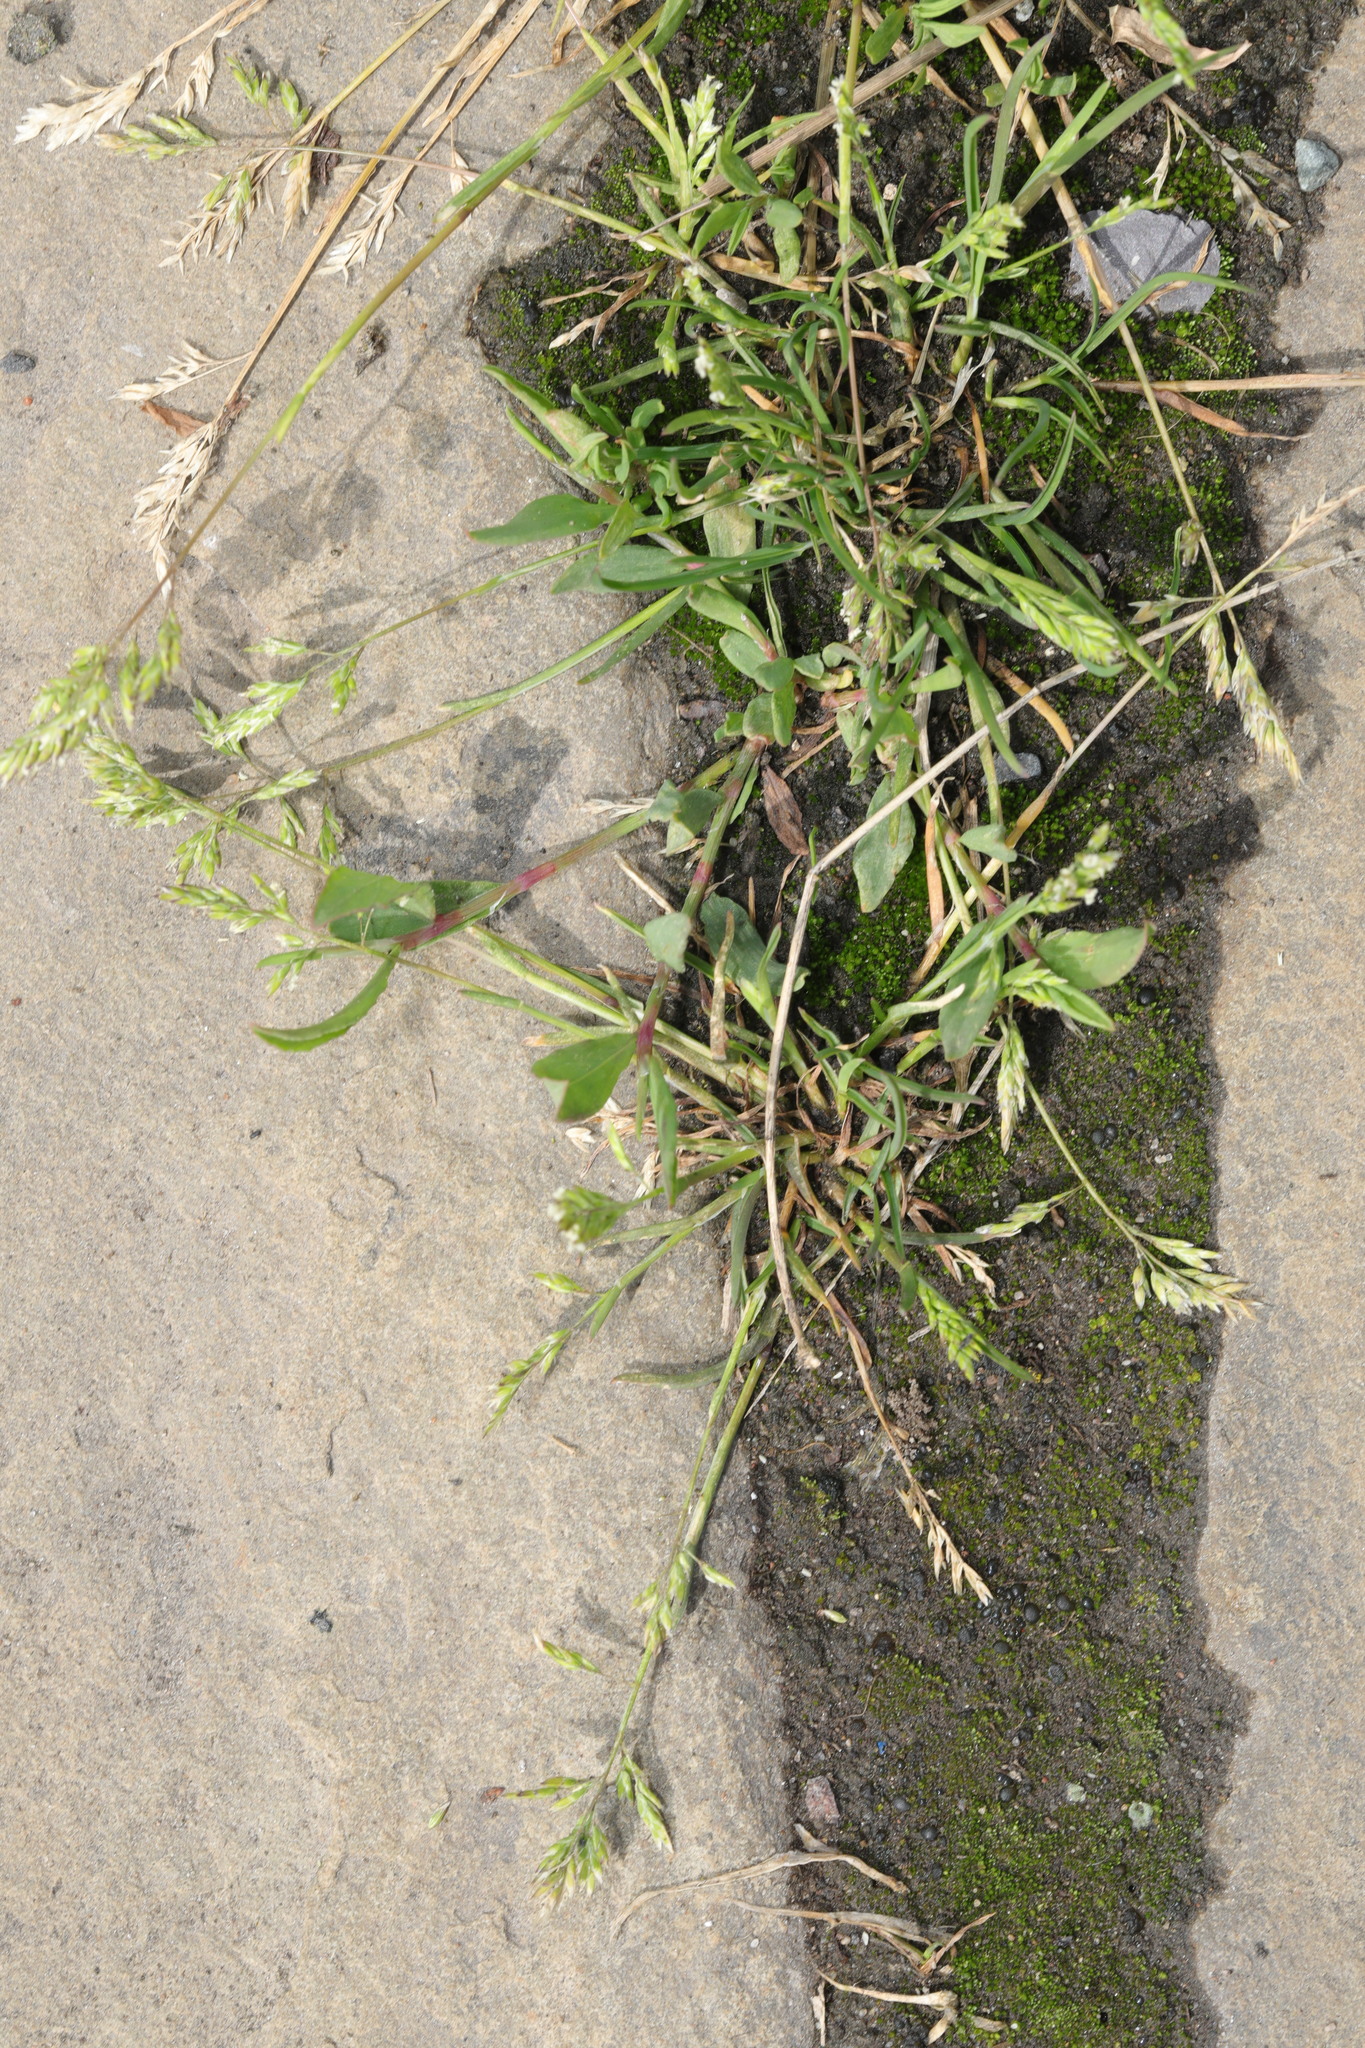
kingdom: Plantae
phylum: Tracheophyta
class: Liliopsida
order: Poales
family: Poaceae
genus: Poa
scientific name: Poa annua
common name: Annual bluegrass
